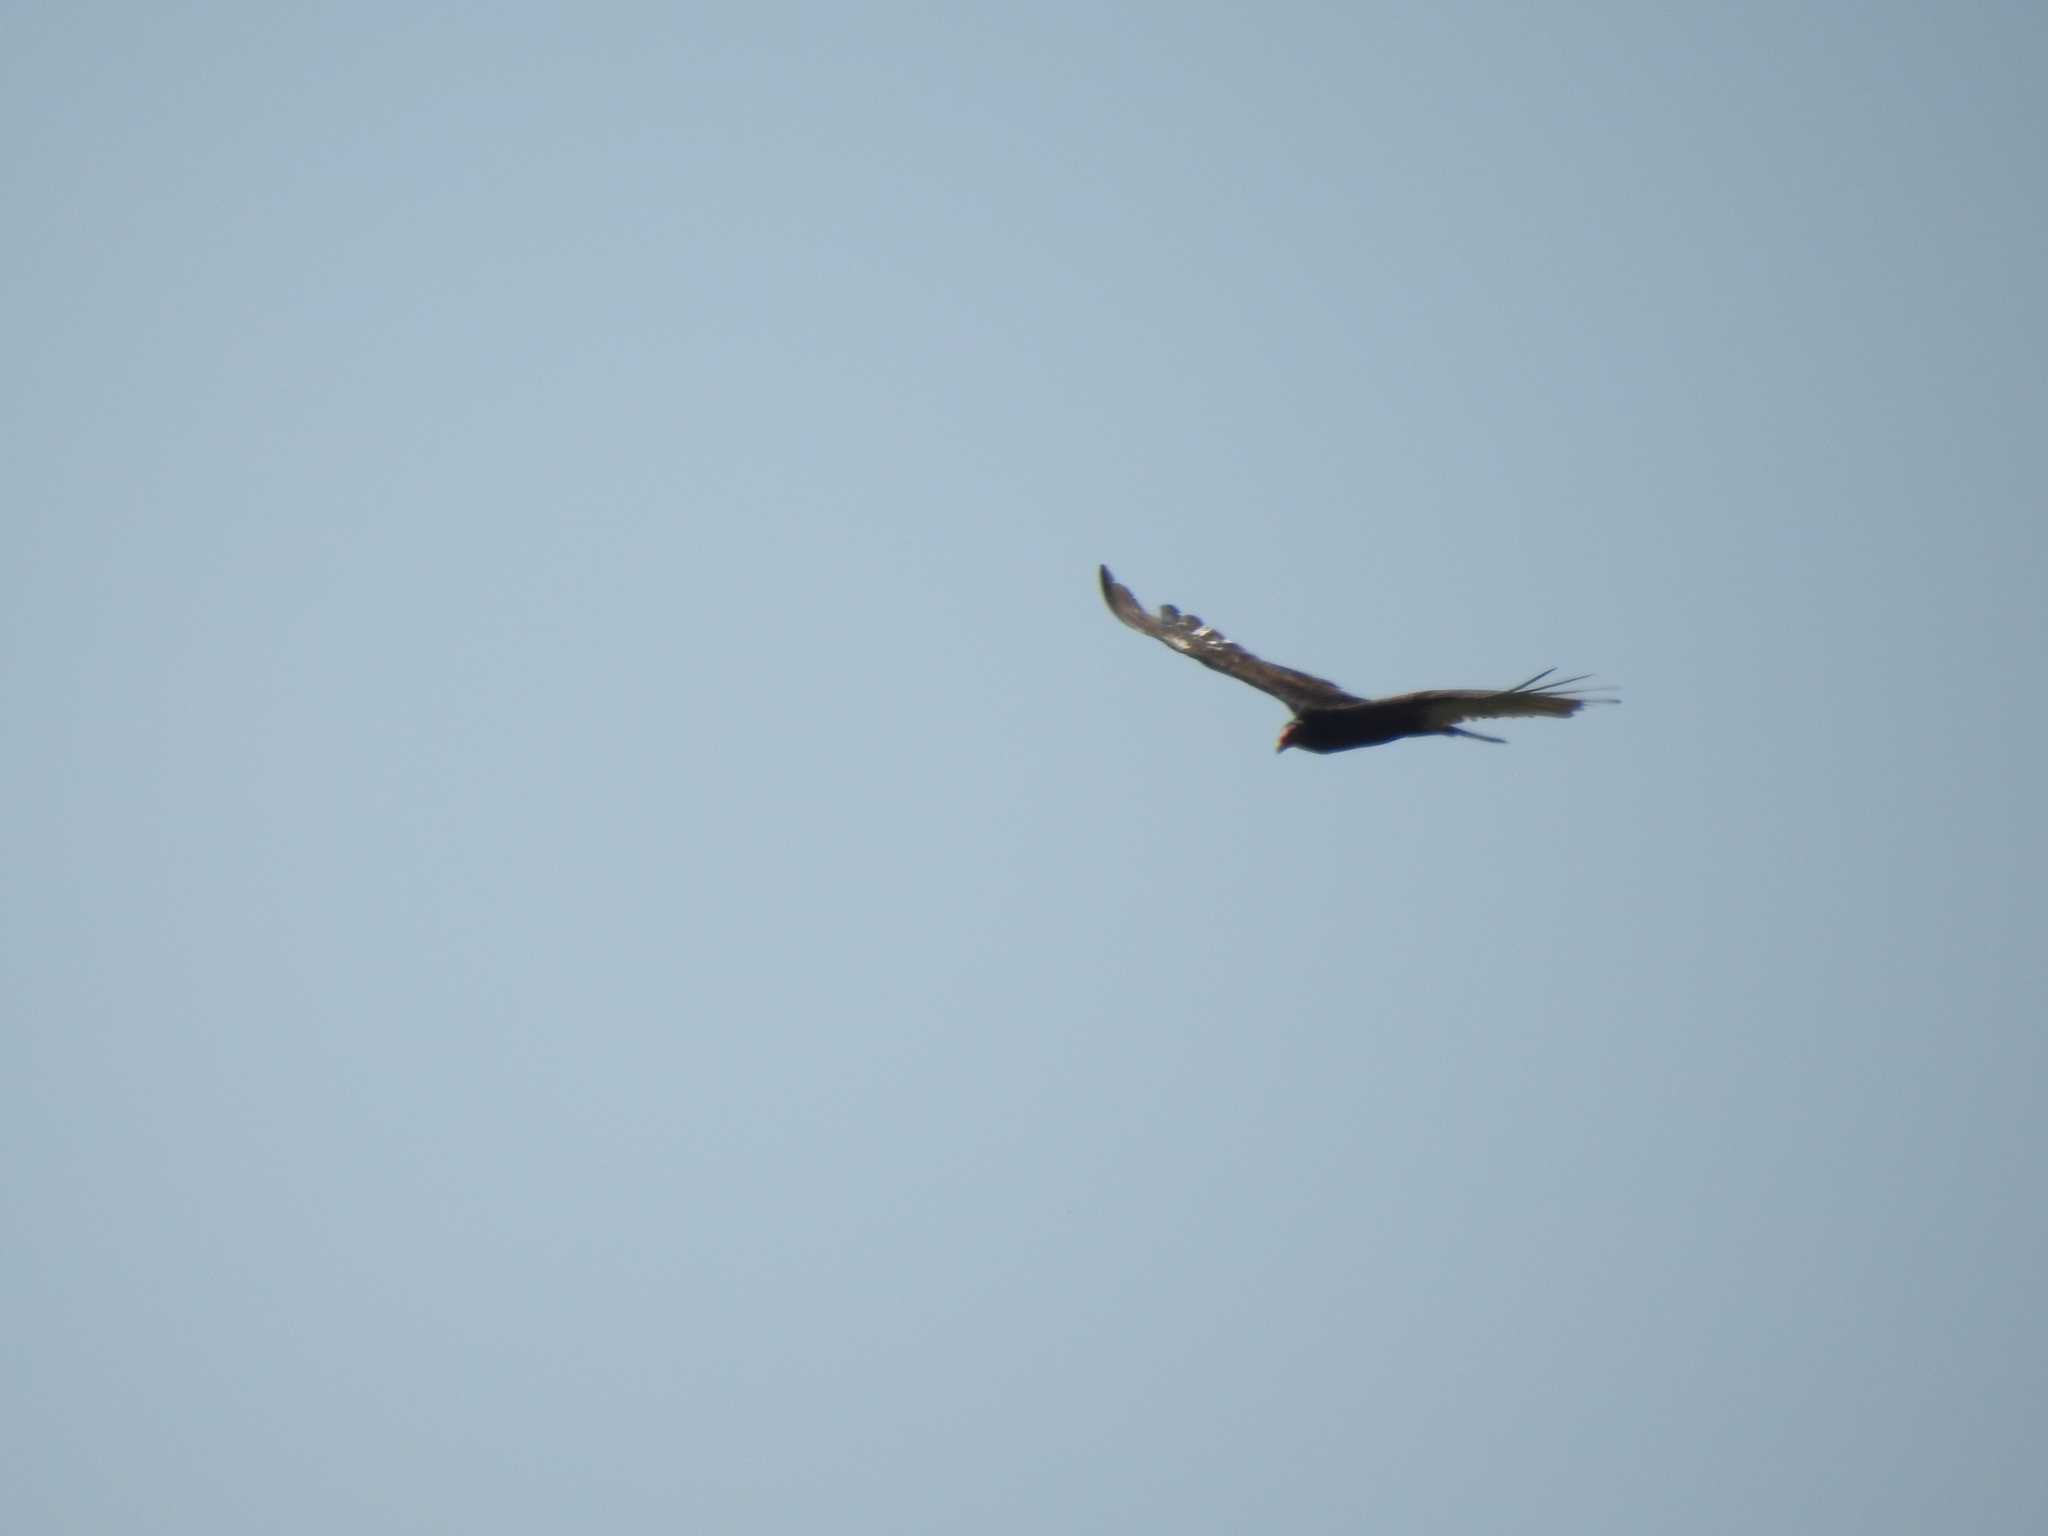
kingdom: Animalia
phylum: Chordata
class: Aves
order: Accipitriformes
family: Cathartidae
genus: Cathartes
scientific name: Cathartes aura
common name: Turkey vulture
